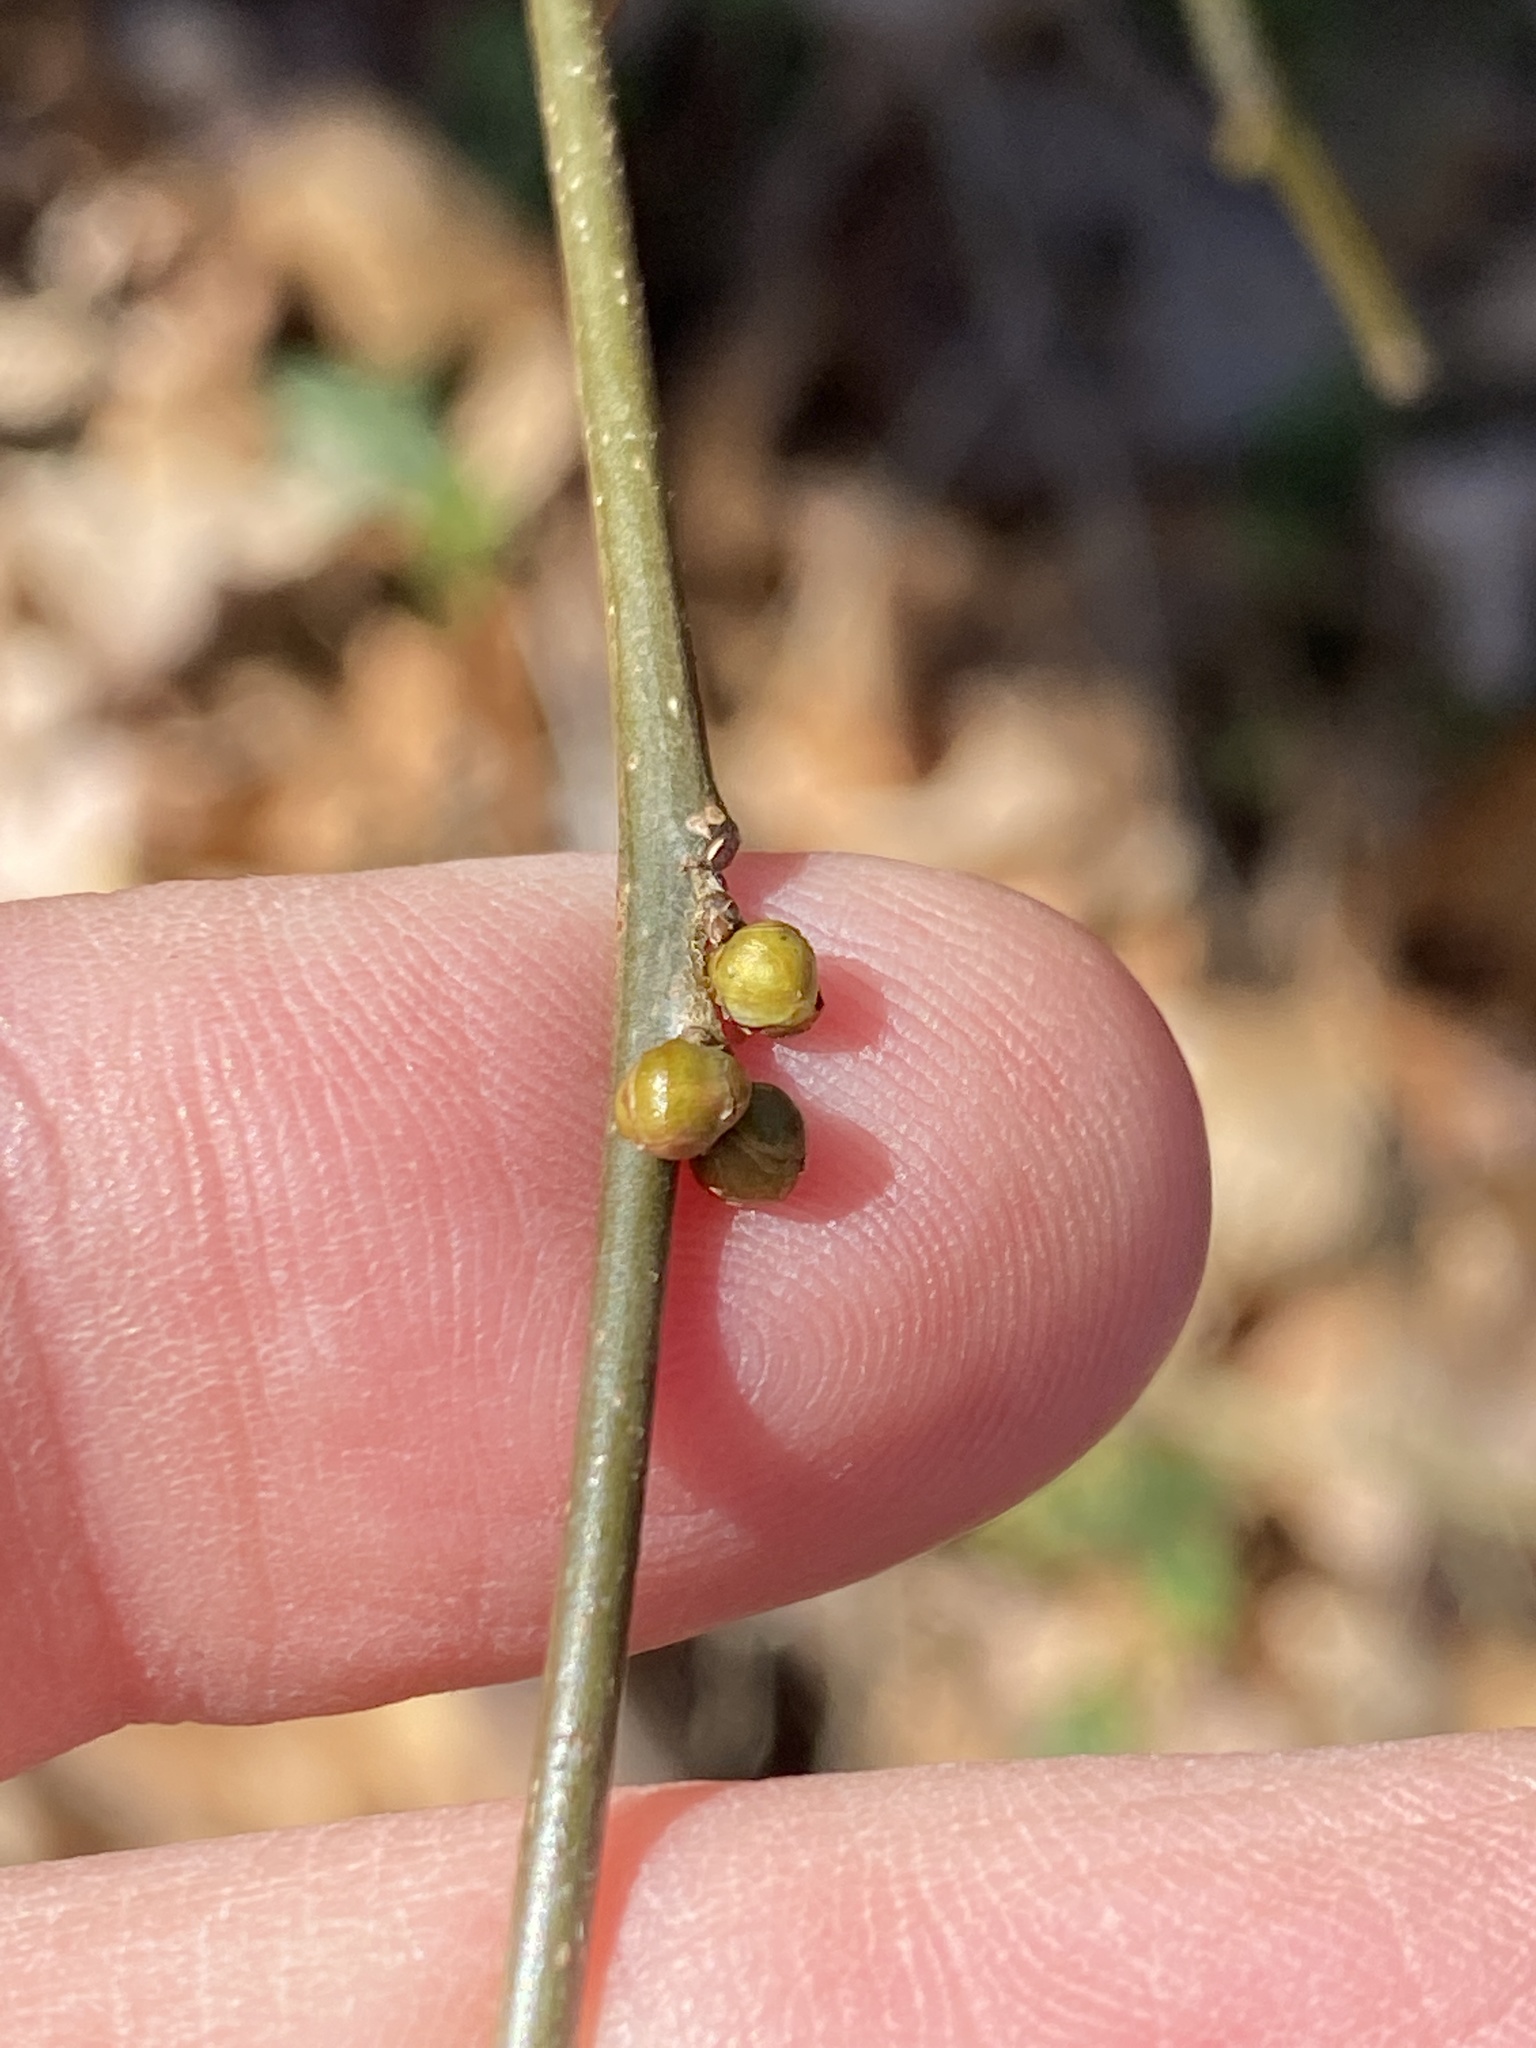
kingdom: Plantae
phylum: Tracheophyta
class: Magnoliopsida
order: Laurales
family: Lauraceae
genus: Lindera
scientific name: Lindera benzoin
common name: Spicebush
